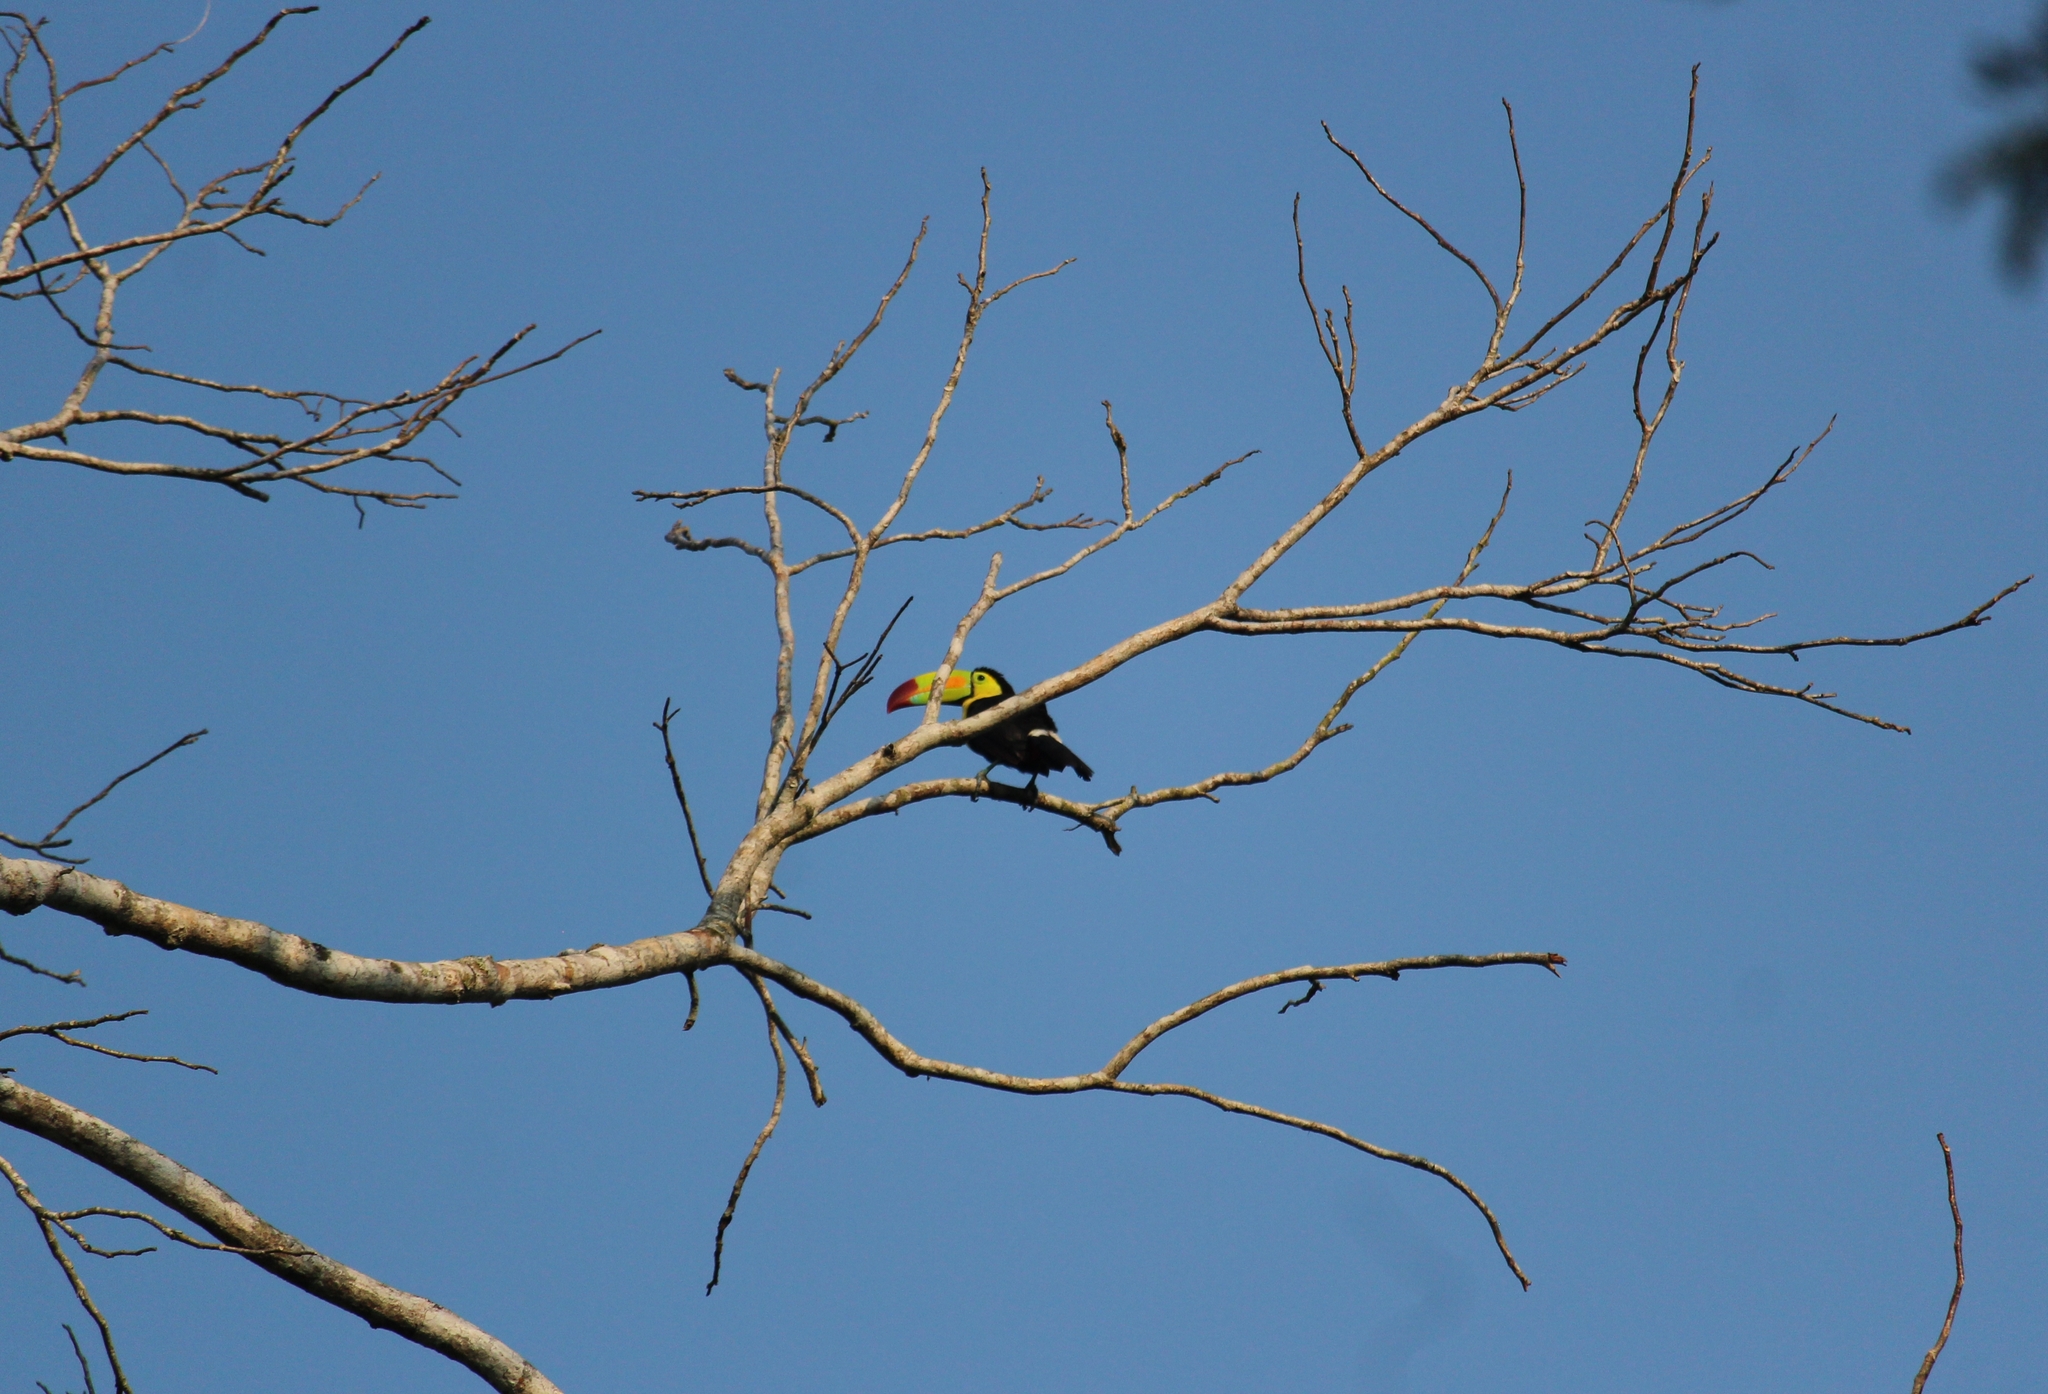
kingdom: Animalia
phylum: Chordata
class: Aves
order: Piciformes
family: Ramphastidae
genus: Ramphastos
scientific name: Ramphastos sulfuratus
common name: Keel-billed toucan
